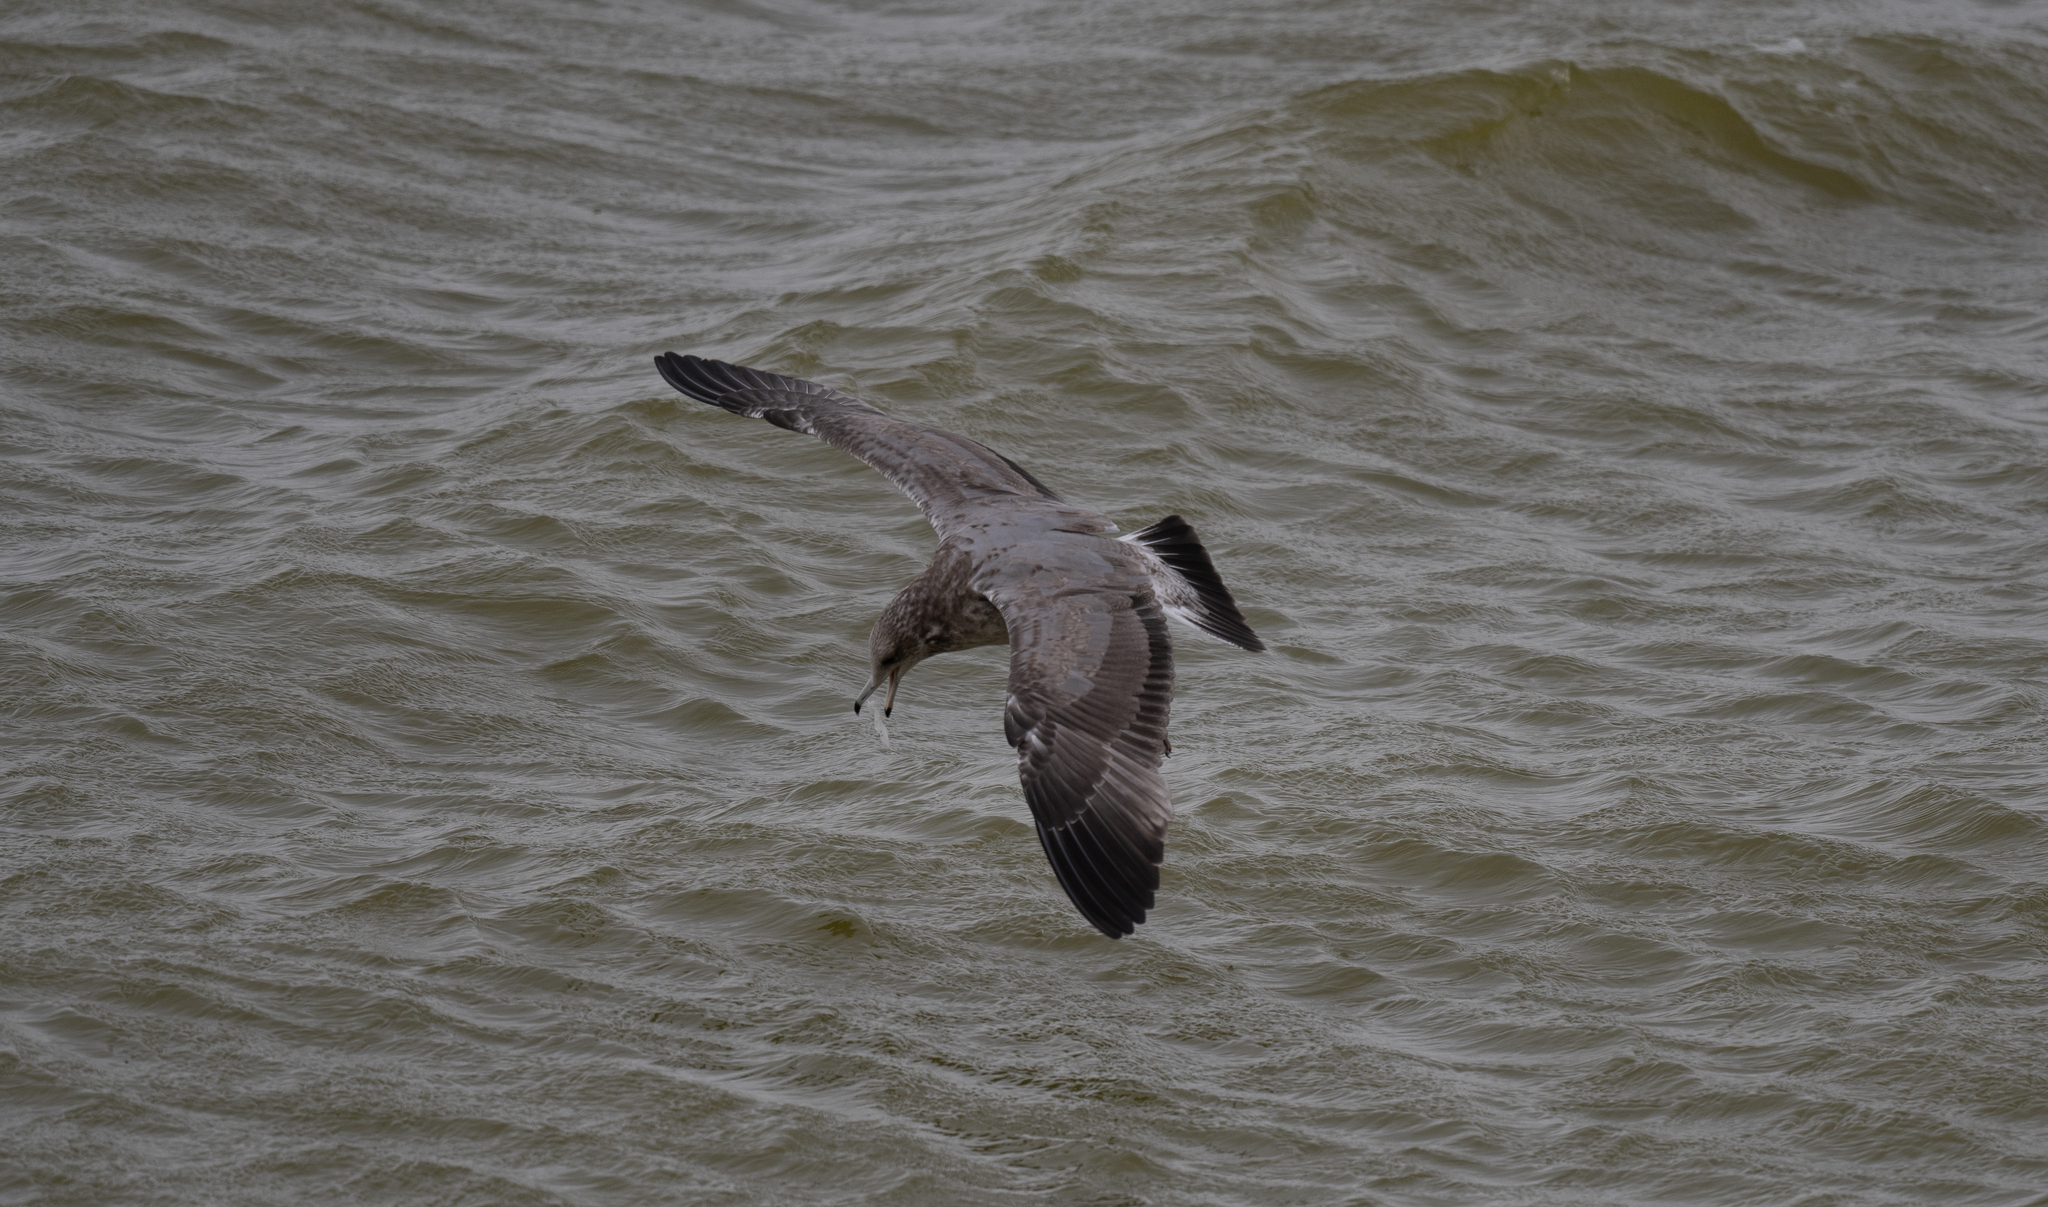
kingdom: Animalia
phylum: Chordata
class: Aves
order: Charadriiformes
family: Laridae
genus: Larus
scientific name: Larus californicus
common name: California gull
